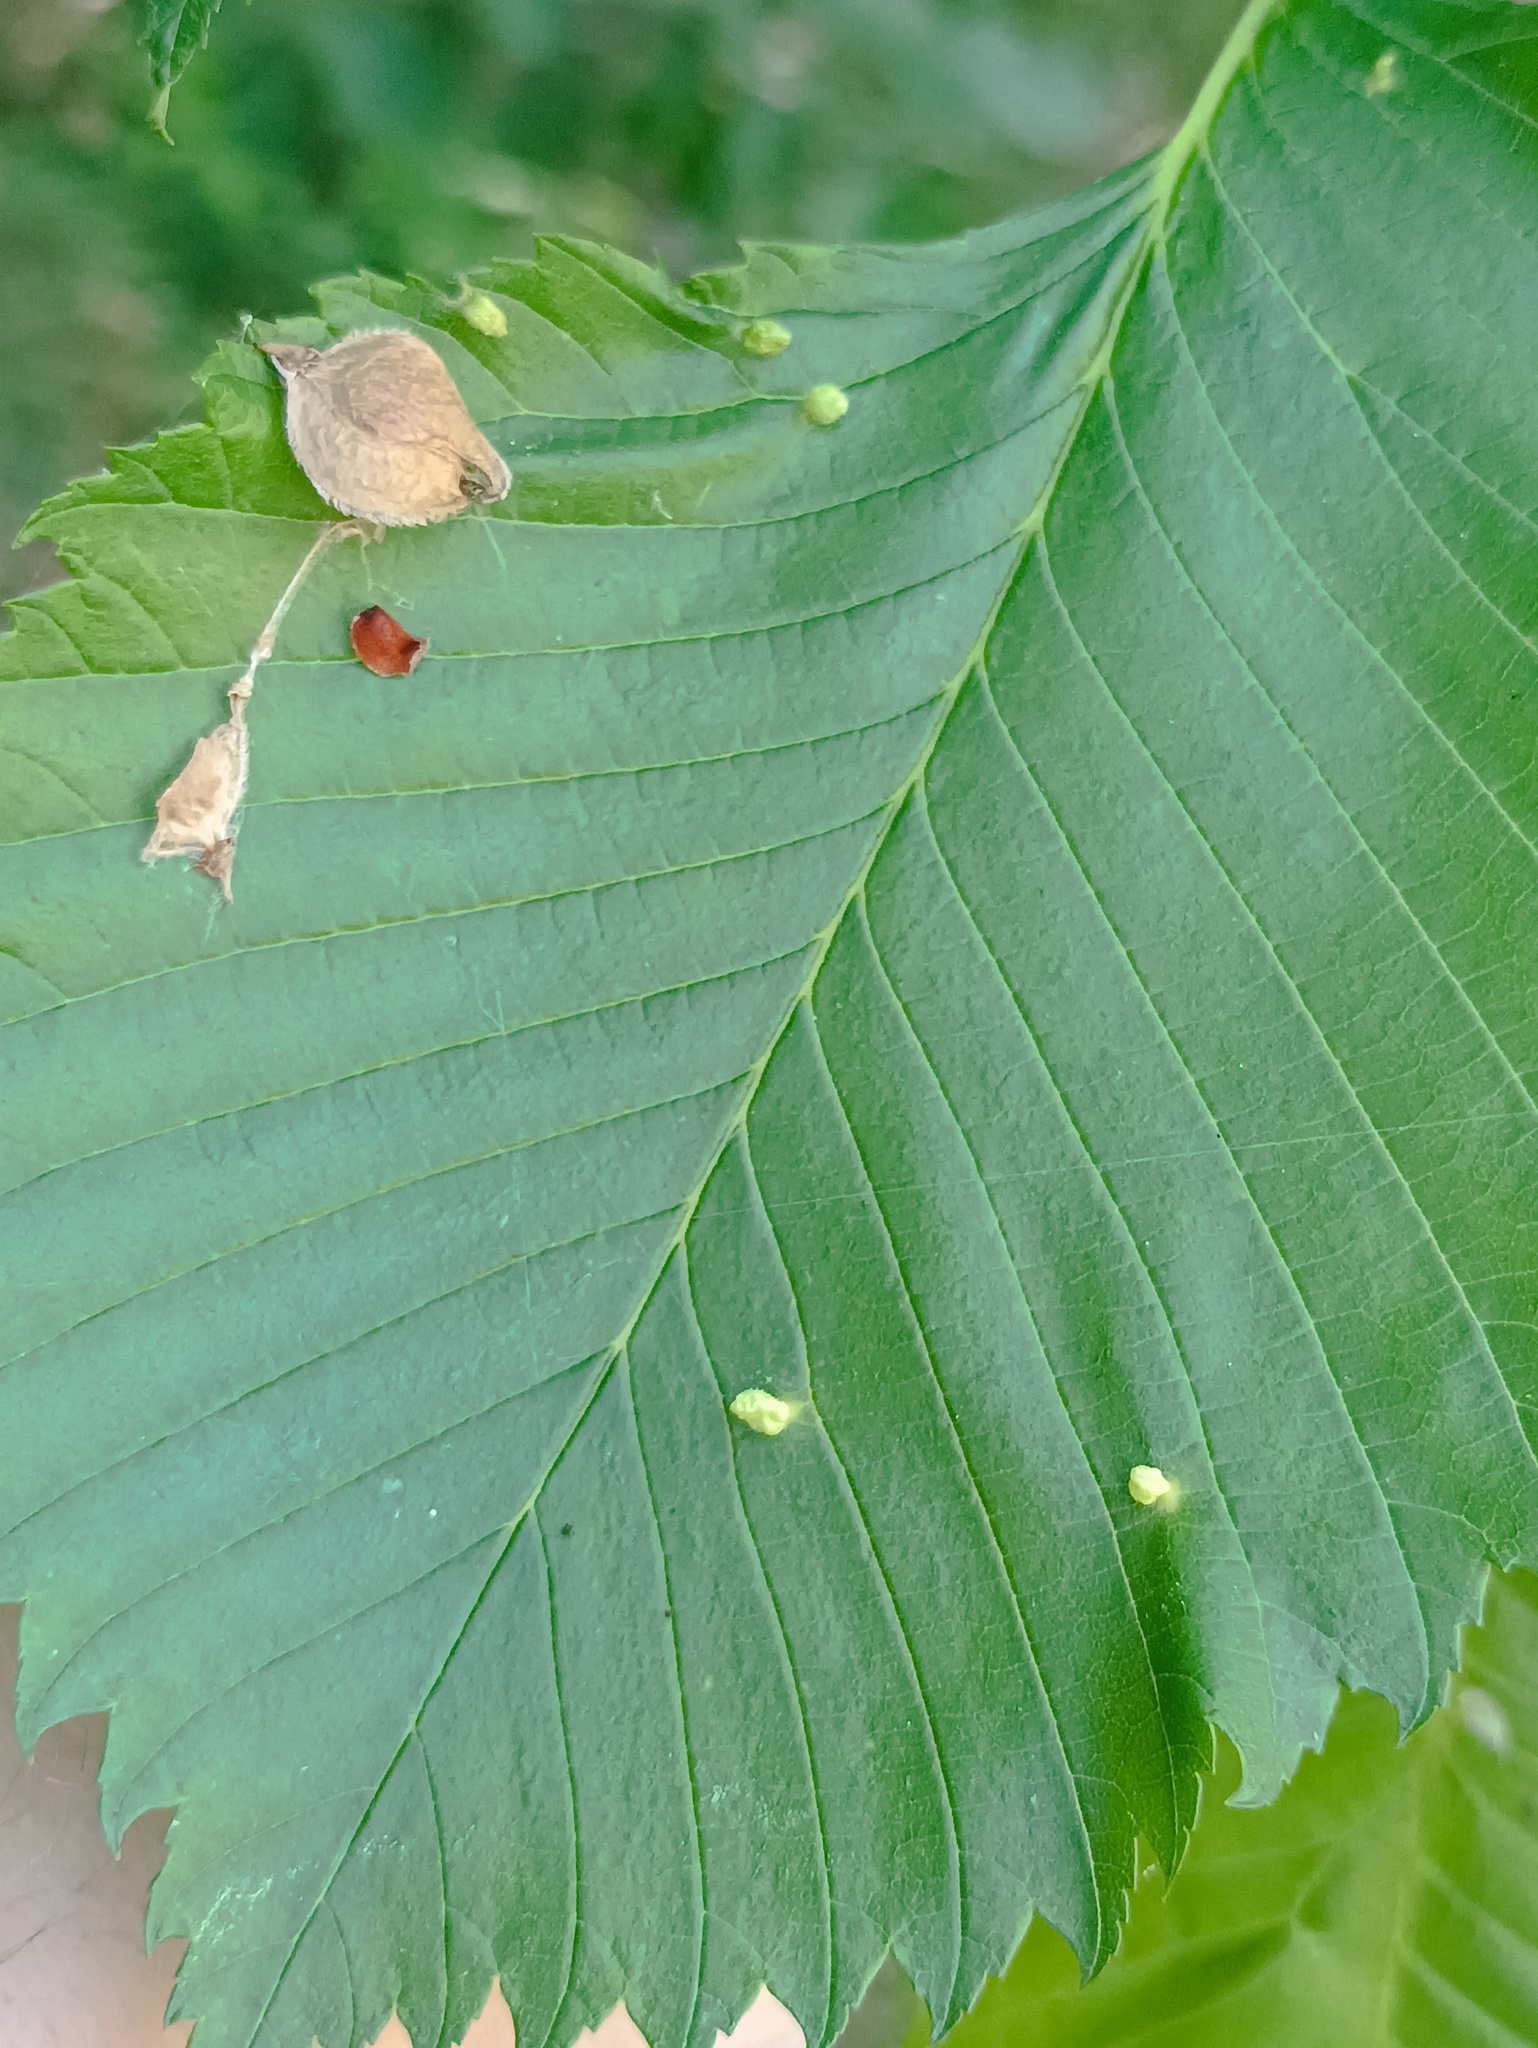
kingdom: Plantae
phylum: Tracheophyta
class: Magnoliopsida
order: Rosales
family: Ulmaceae
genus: Ulmus
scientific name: Ulmus laevis
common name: European white-elm
